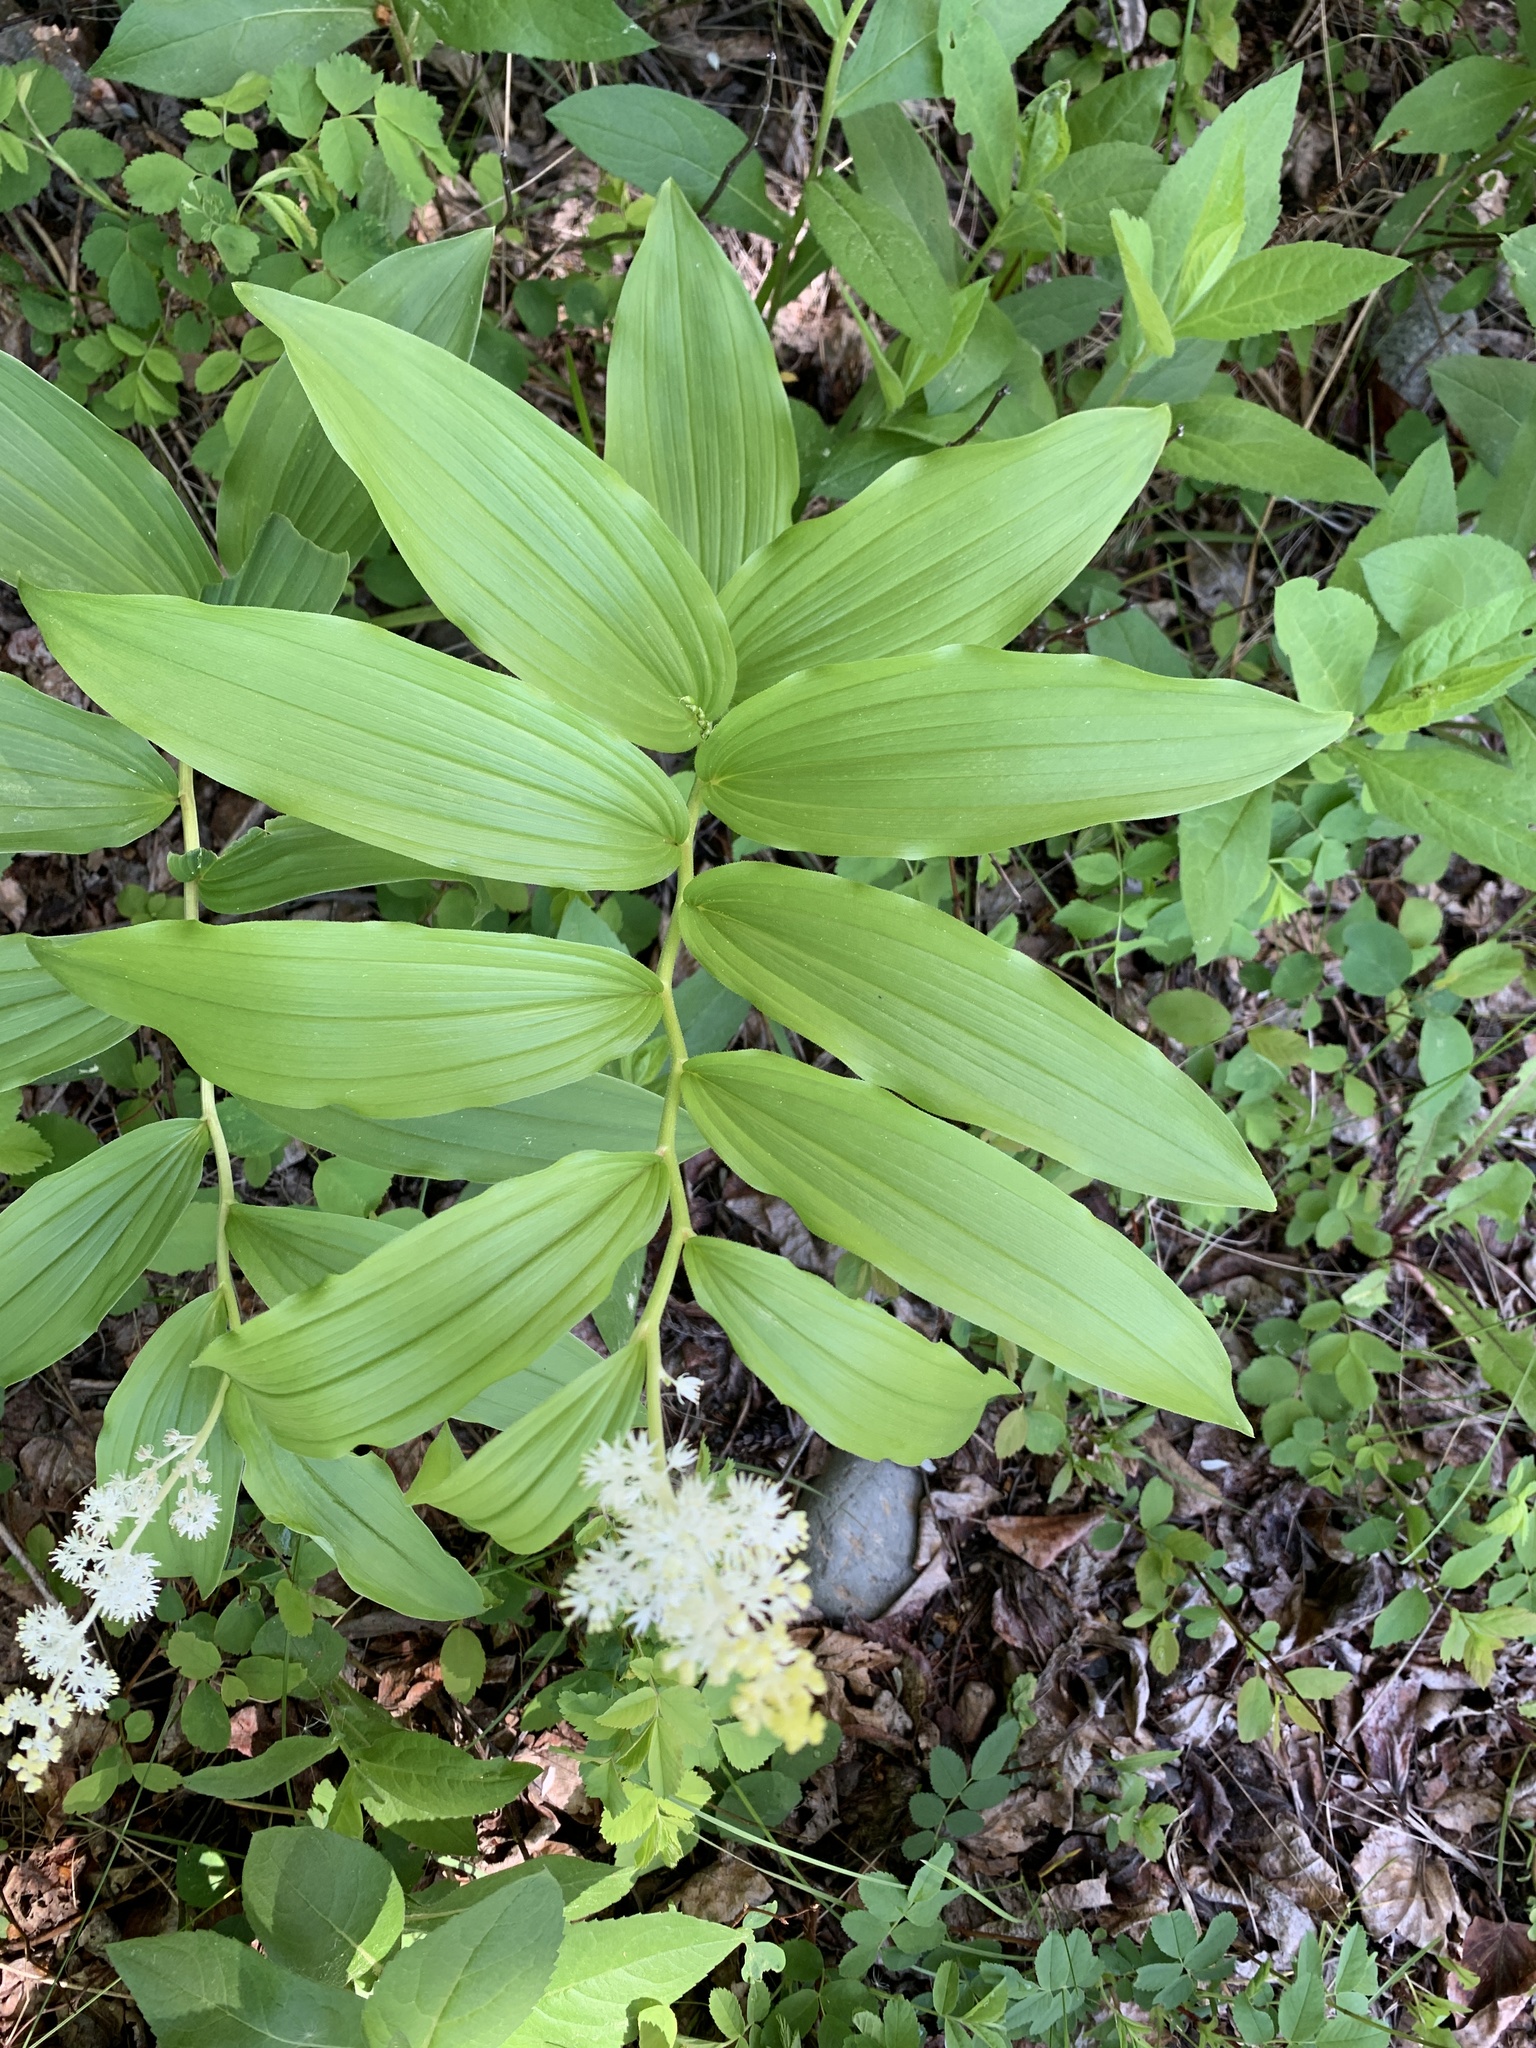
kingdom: Plantae
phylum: Tracheophyta
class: Liliopsida
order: Asparagales
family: Asparagaceae
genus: Maianthemum
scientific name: Maianthemum racemosum
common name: False spikenard
